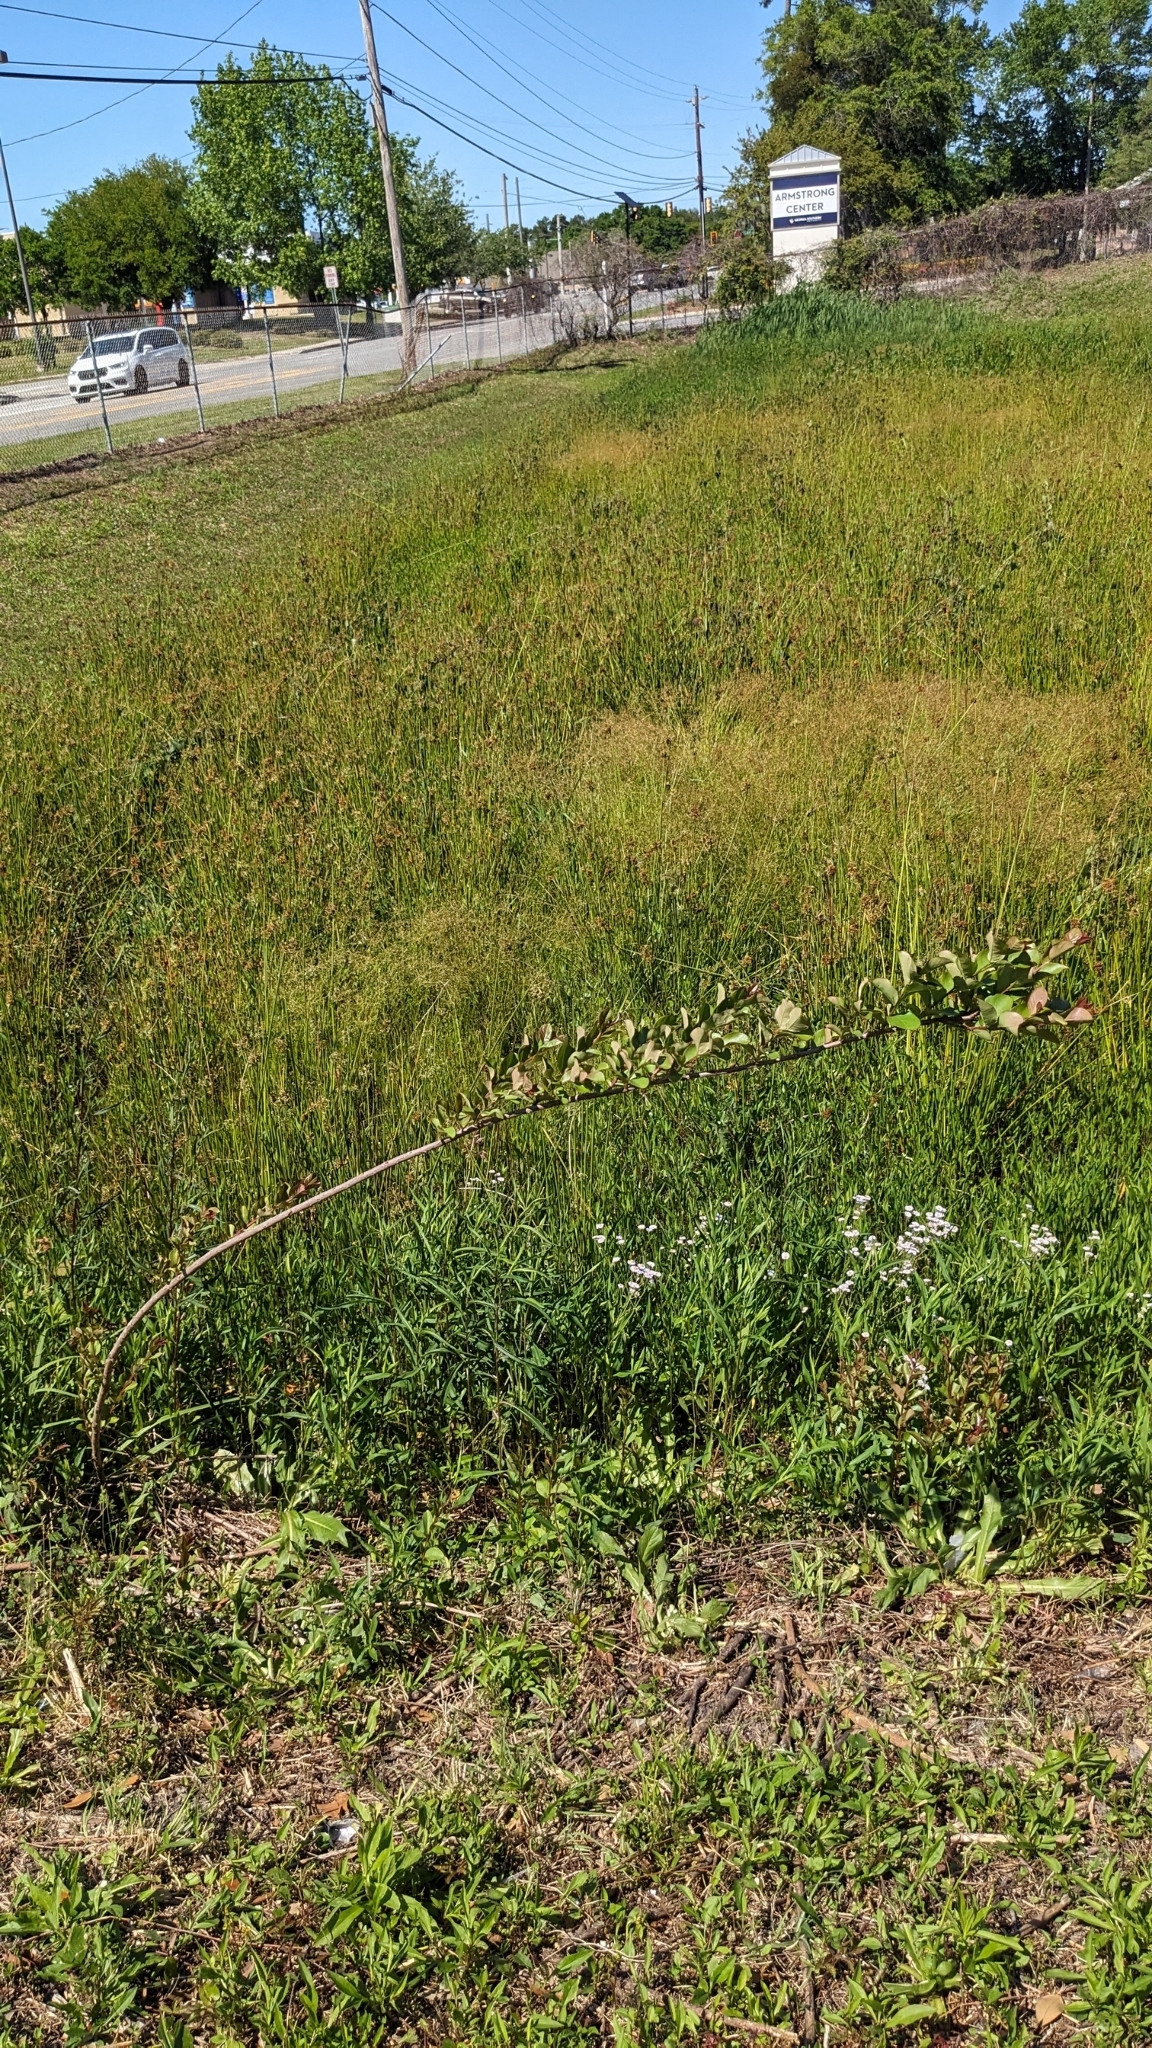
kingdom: Plantae
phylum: Tracheophyta
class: Magnoliopsida
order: Myrtales
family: Lythraceae
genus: Lagerstroemia
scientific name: Lagerstroemia indica
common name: Crape-myrtle
